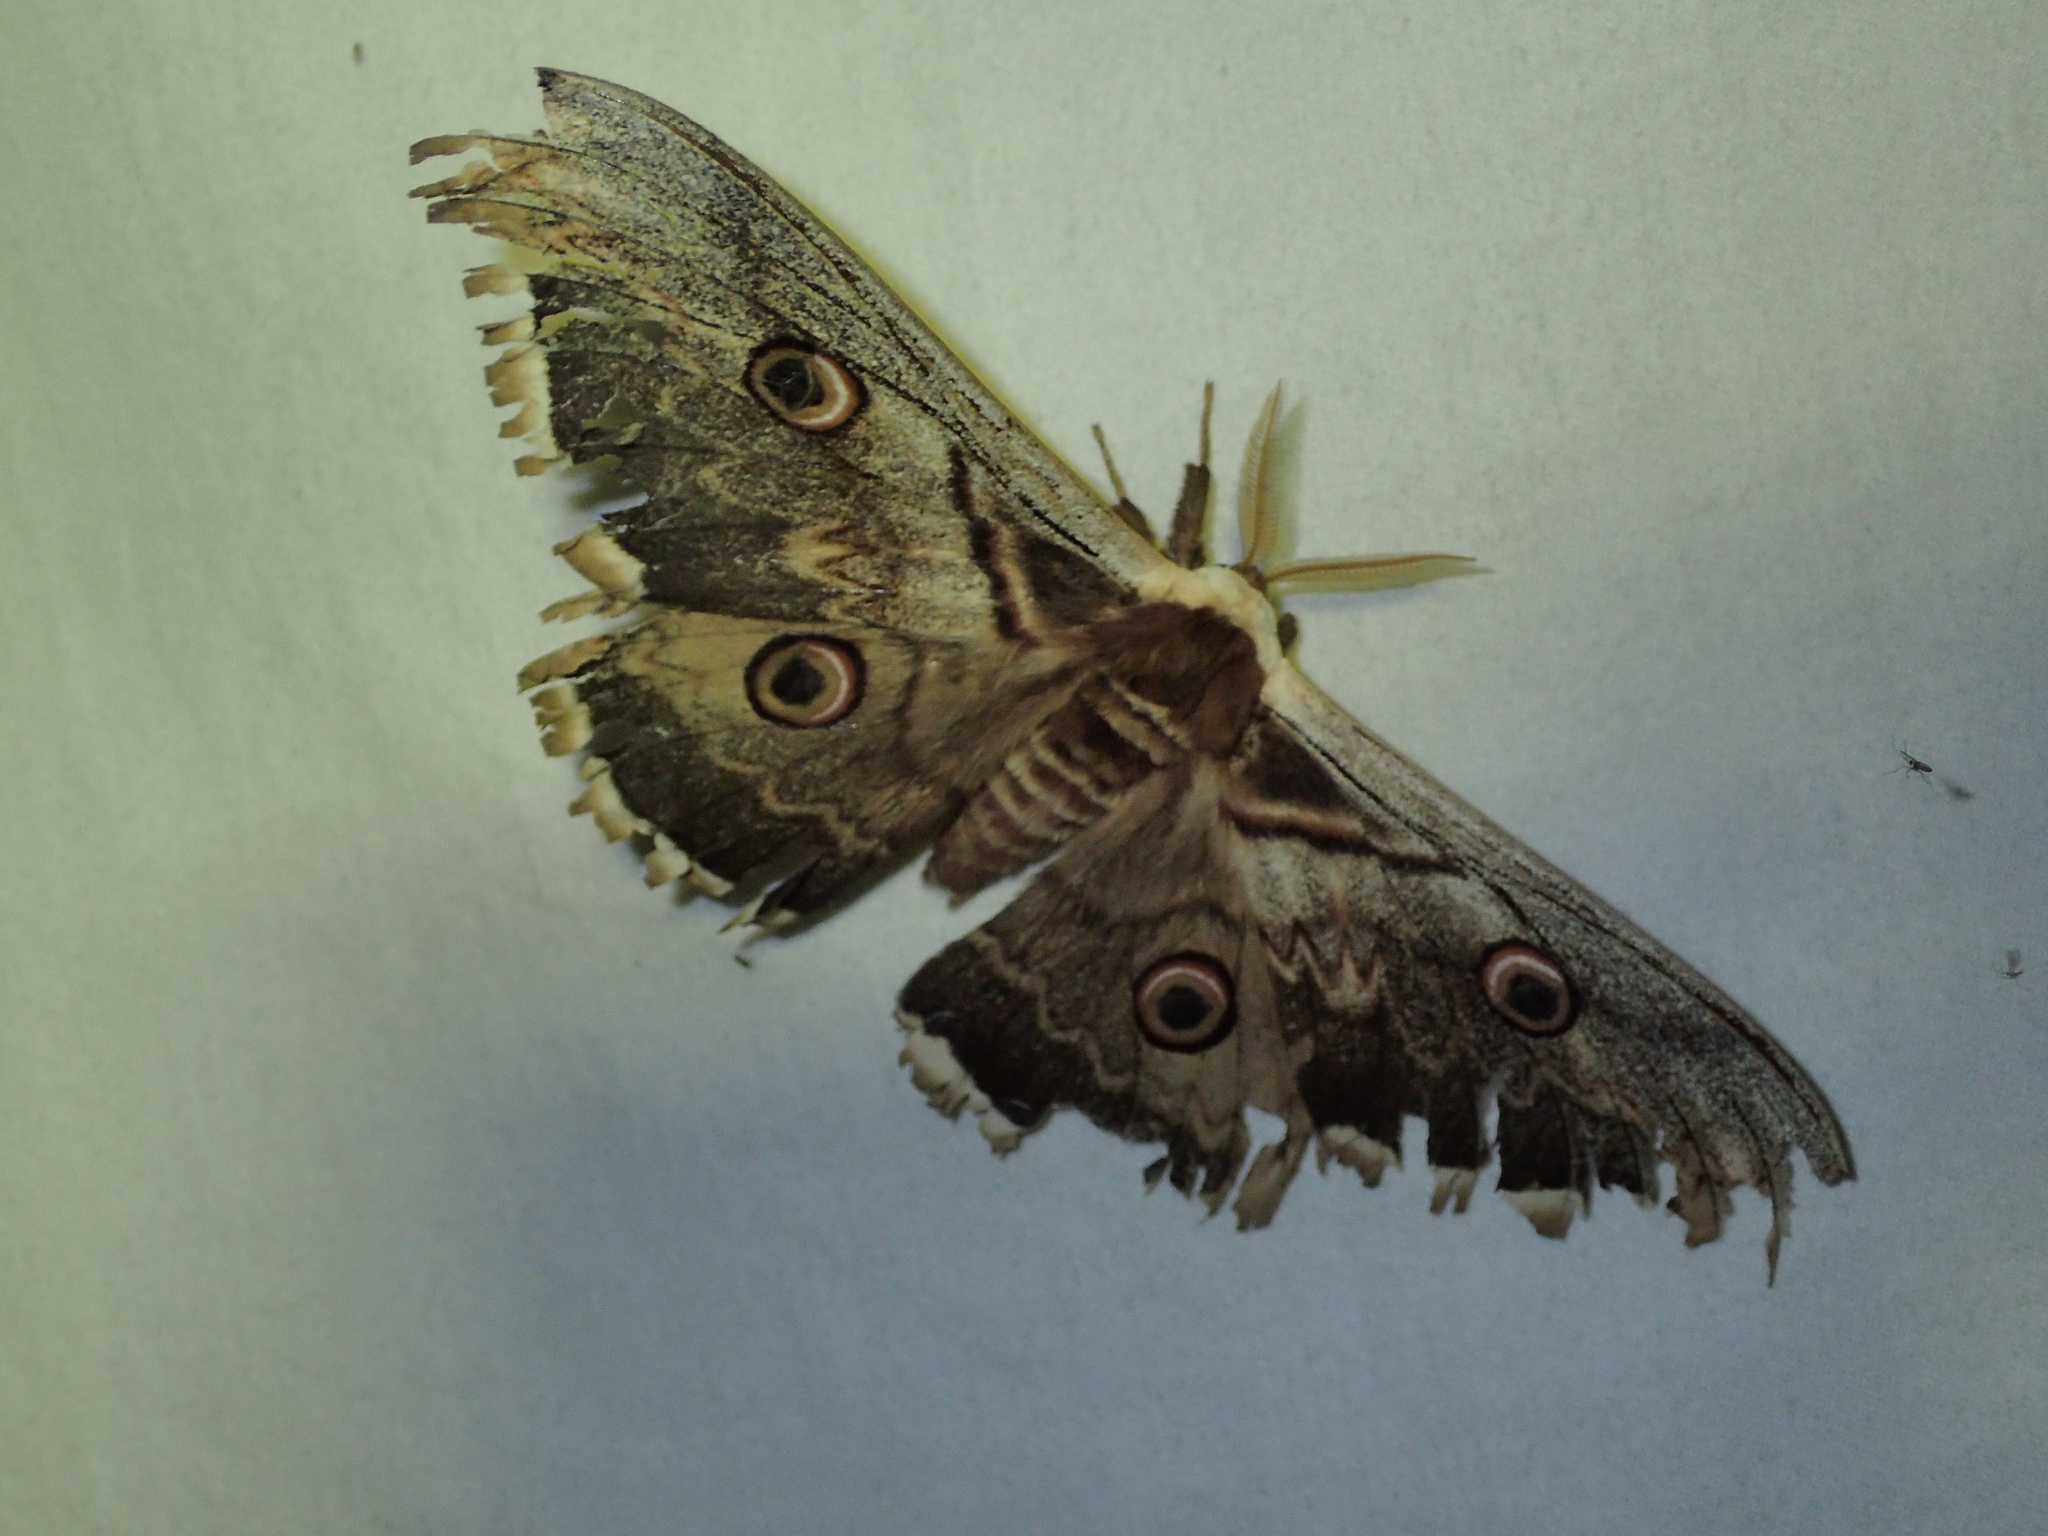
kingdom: Animalia
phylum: Arthropoda
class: Insecta
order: Lepidoptera
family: Saturniidae
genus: Saturnia
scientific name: Saturnia pyri
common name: Great peacock moth
